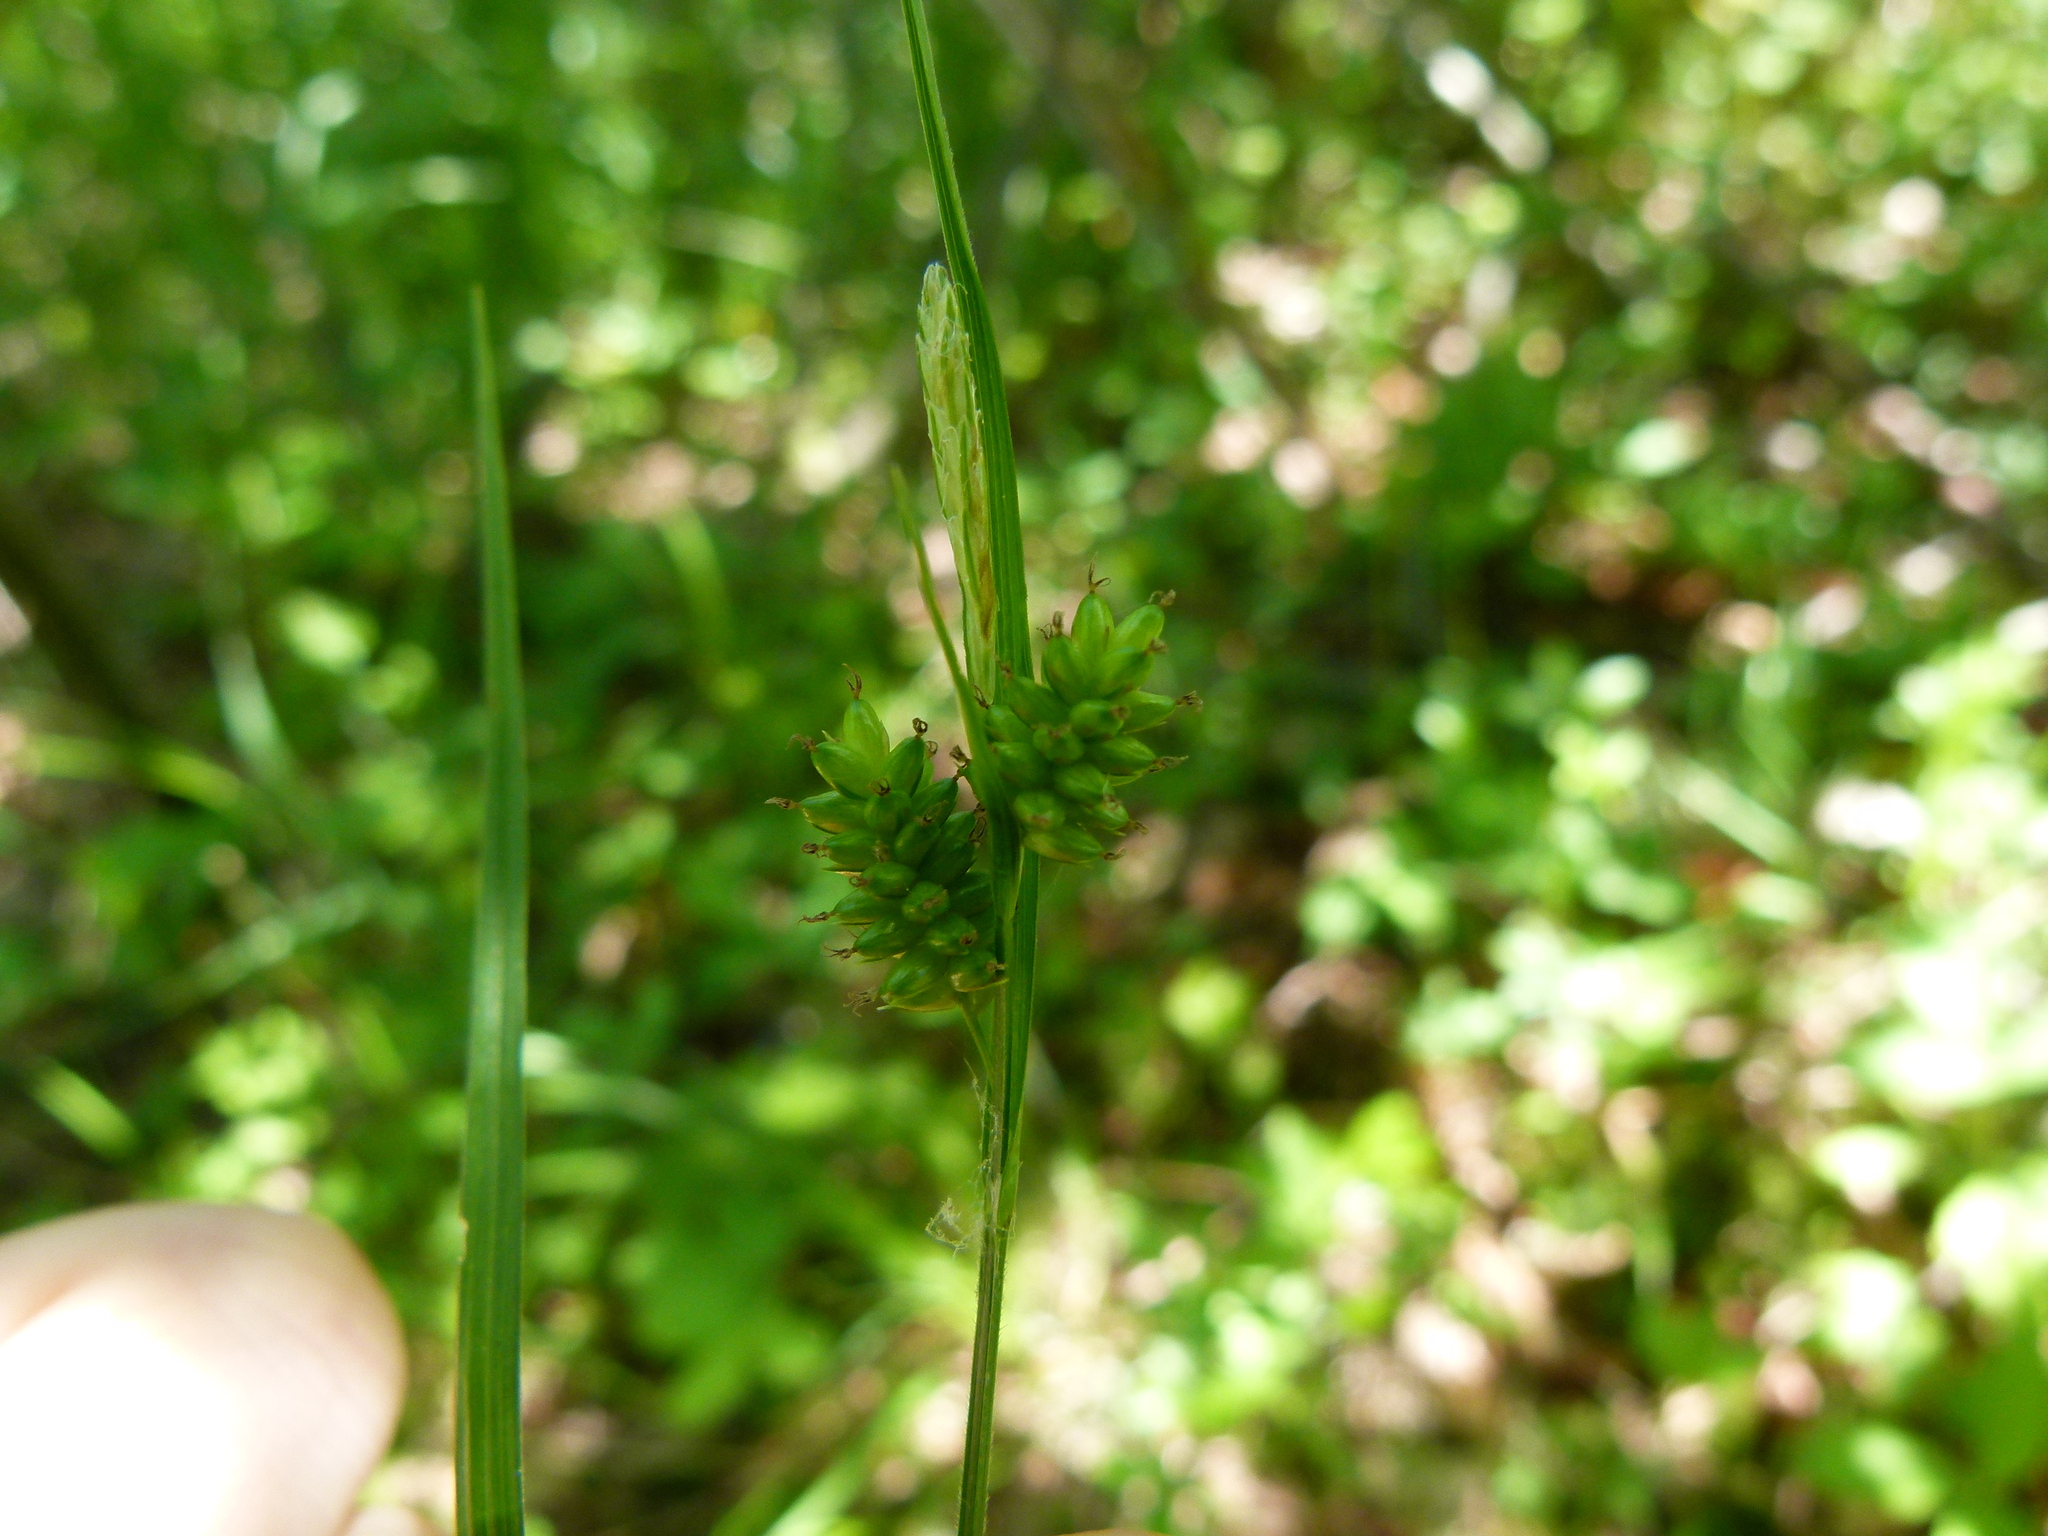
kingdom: Plantae
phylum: Tracheophyta
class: Liliopsida
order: Poales
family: Cyperaceae
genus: Carex
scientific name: Carex pallescens
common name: Pale sedge
